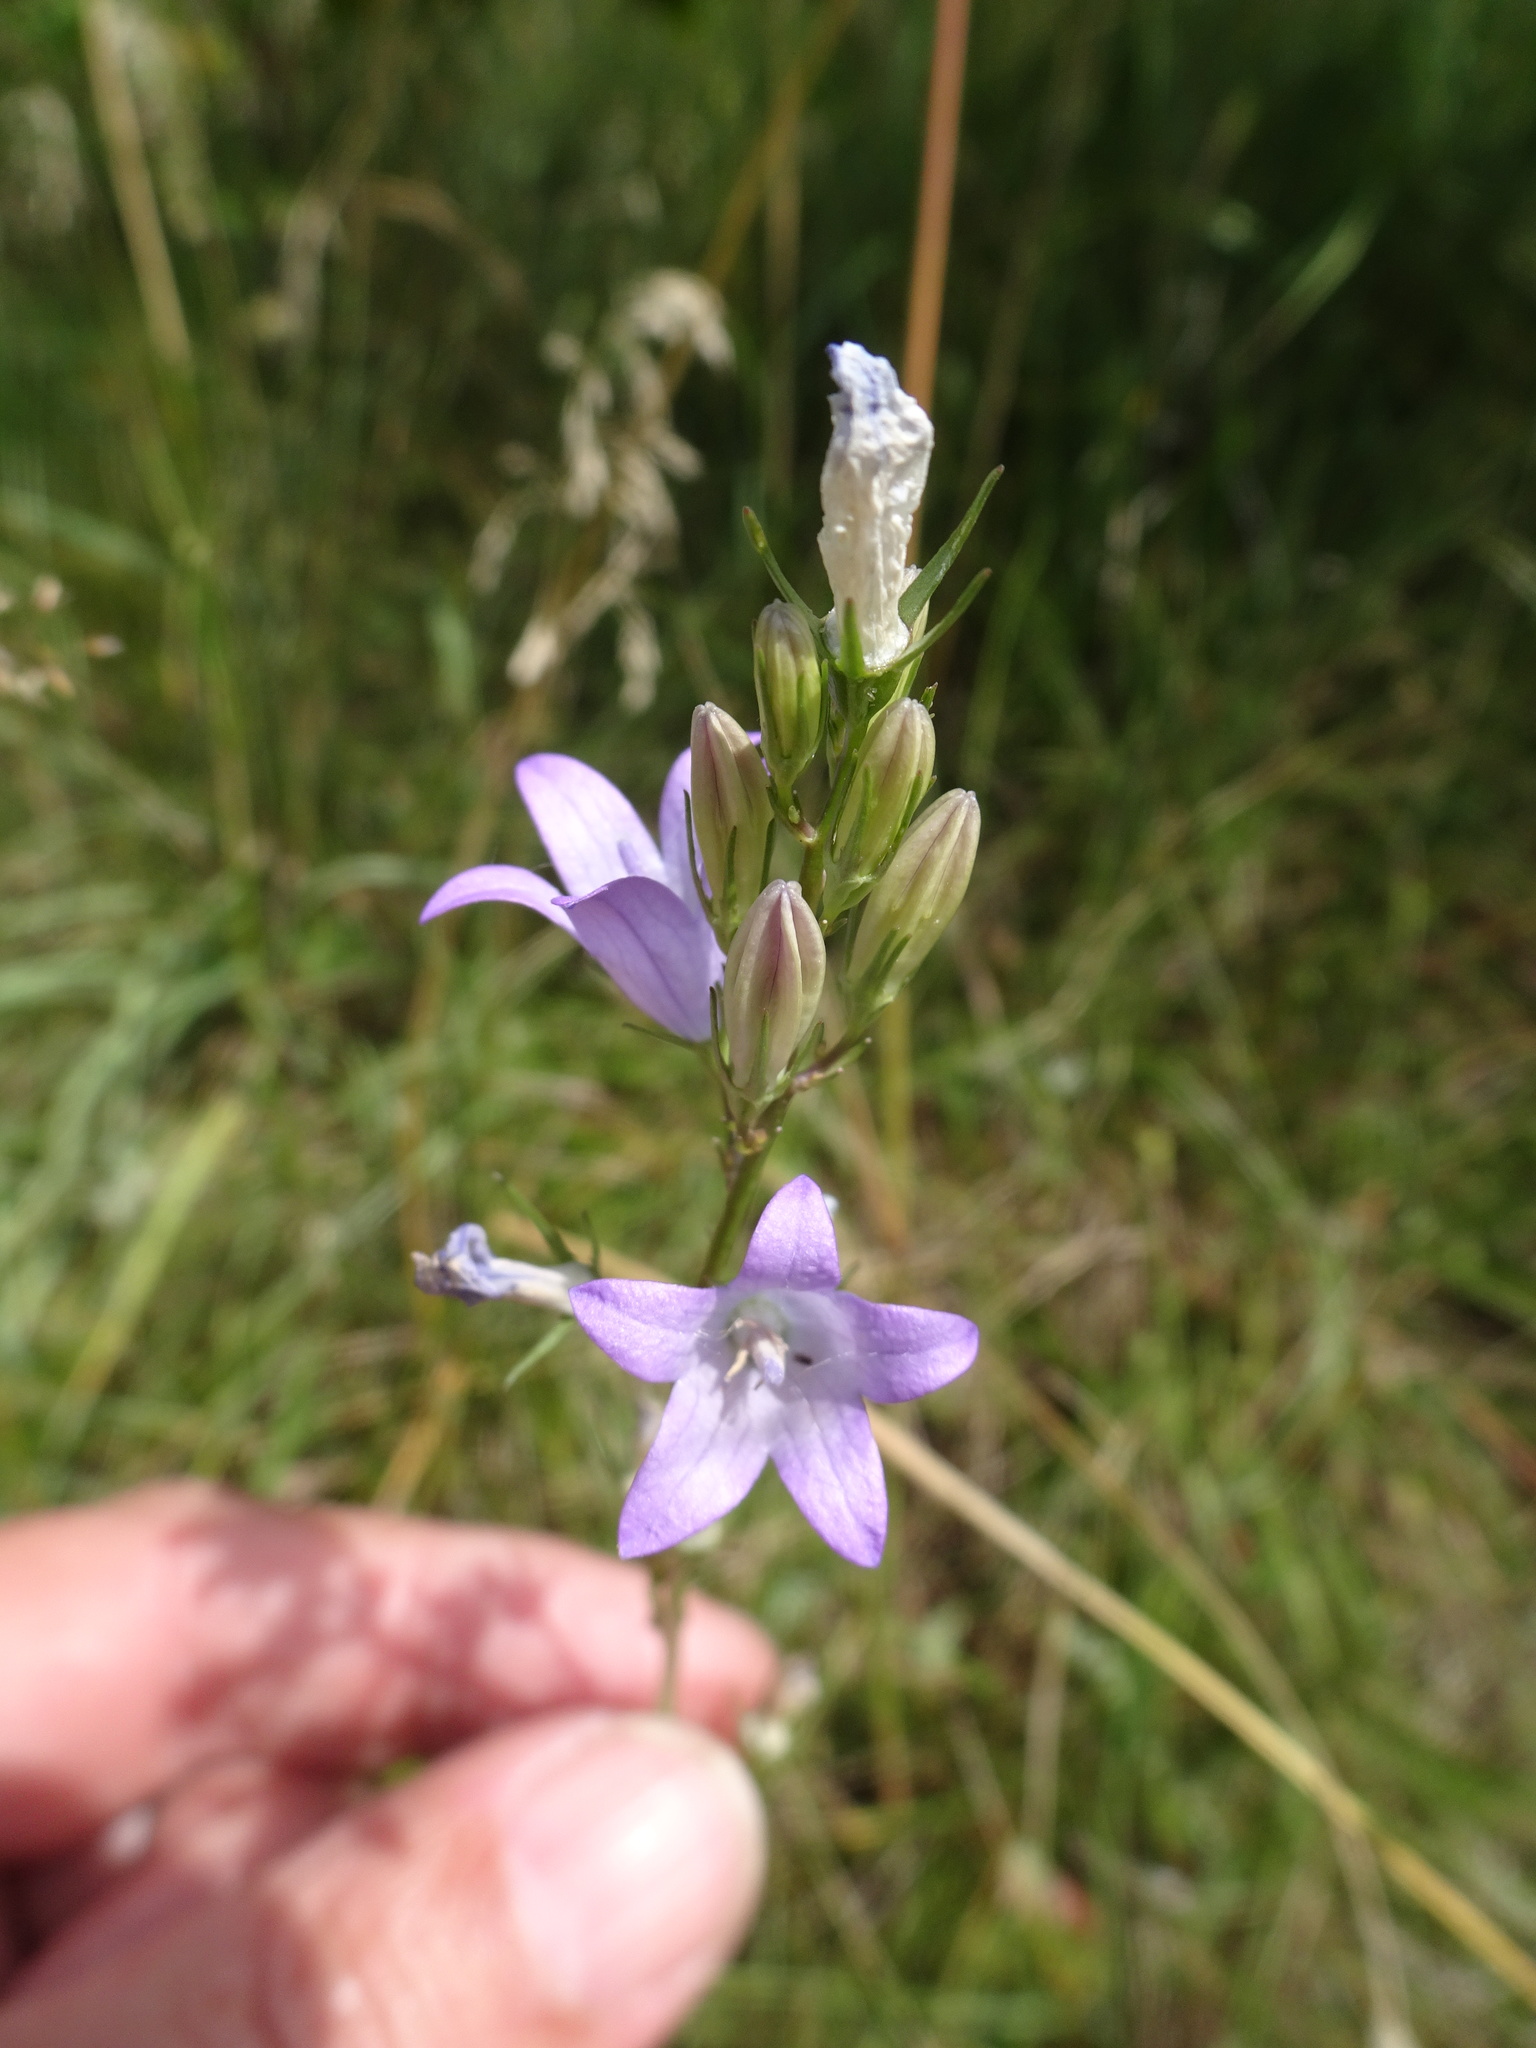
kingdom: Plantae
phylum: Tracheophyta
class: Magnoliopsida
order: Asterales
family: Campanulaceae
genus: Campanula
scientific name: Campanula rapunculus
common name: Rampion bellflower
